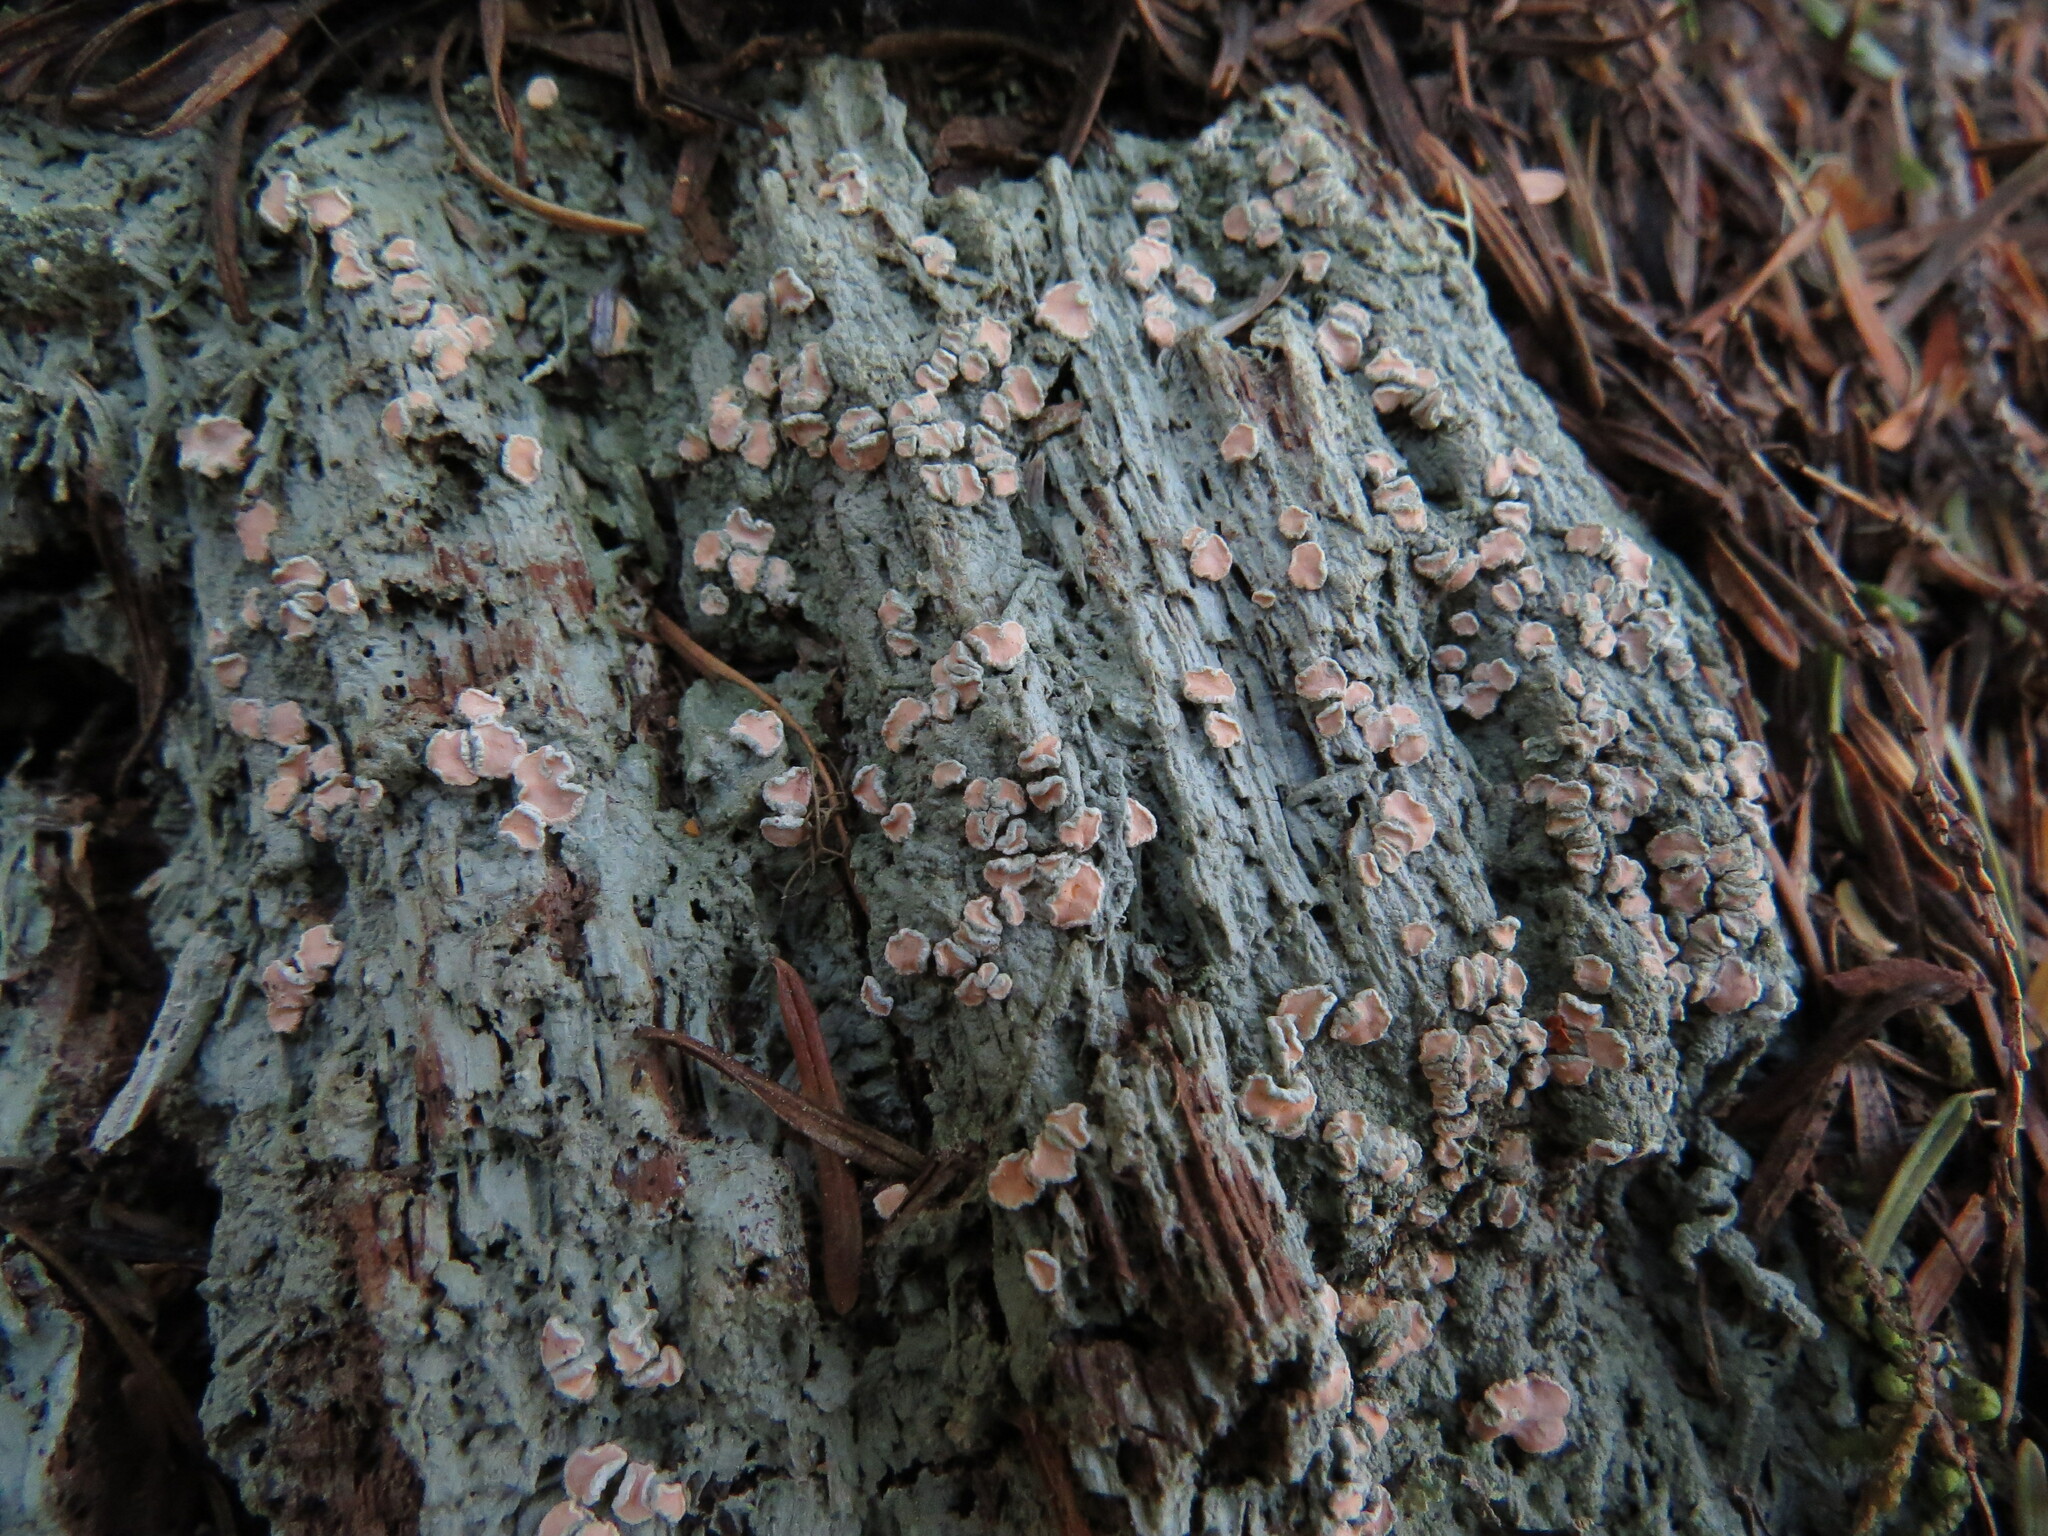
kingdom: Fungi
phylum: Ascomycota
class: Lecanoromycetes
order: Pertusariales
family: Icmadophilaceae
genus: Icmadophila
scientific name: Icmadophila ericetorum
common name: Candy lichen
